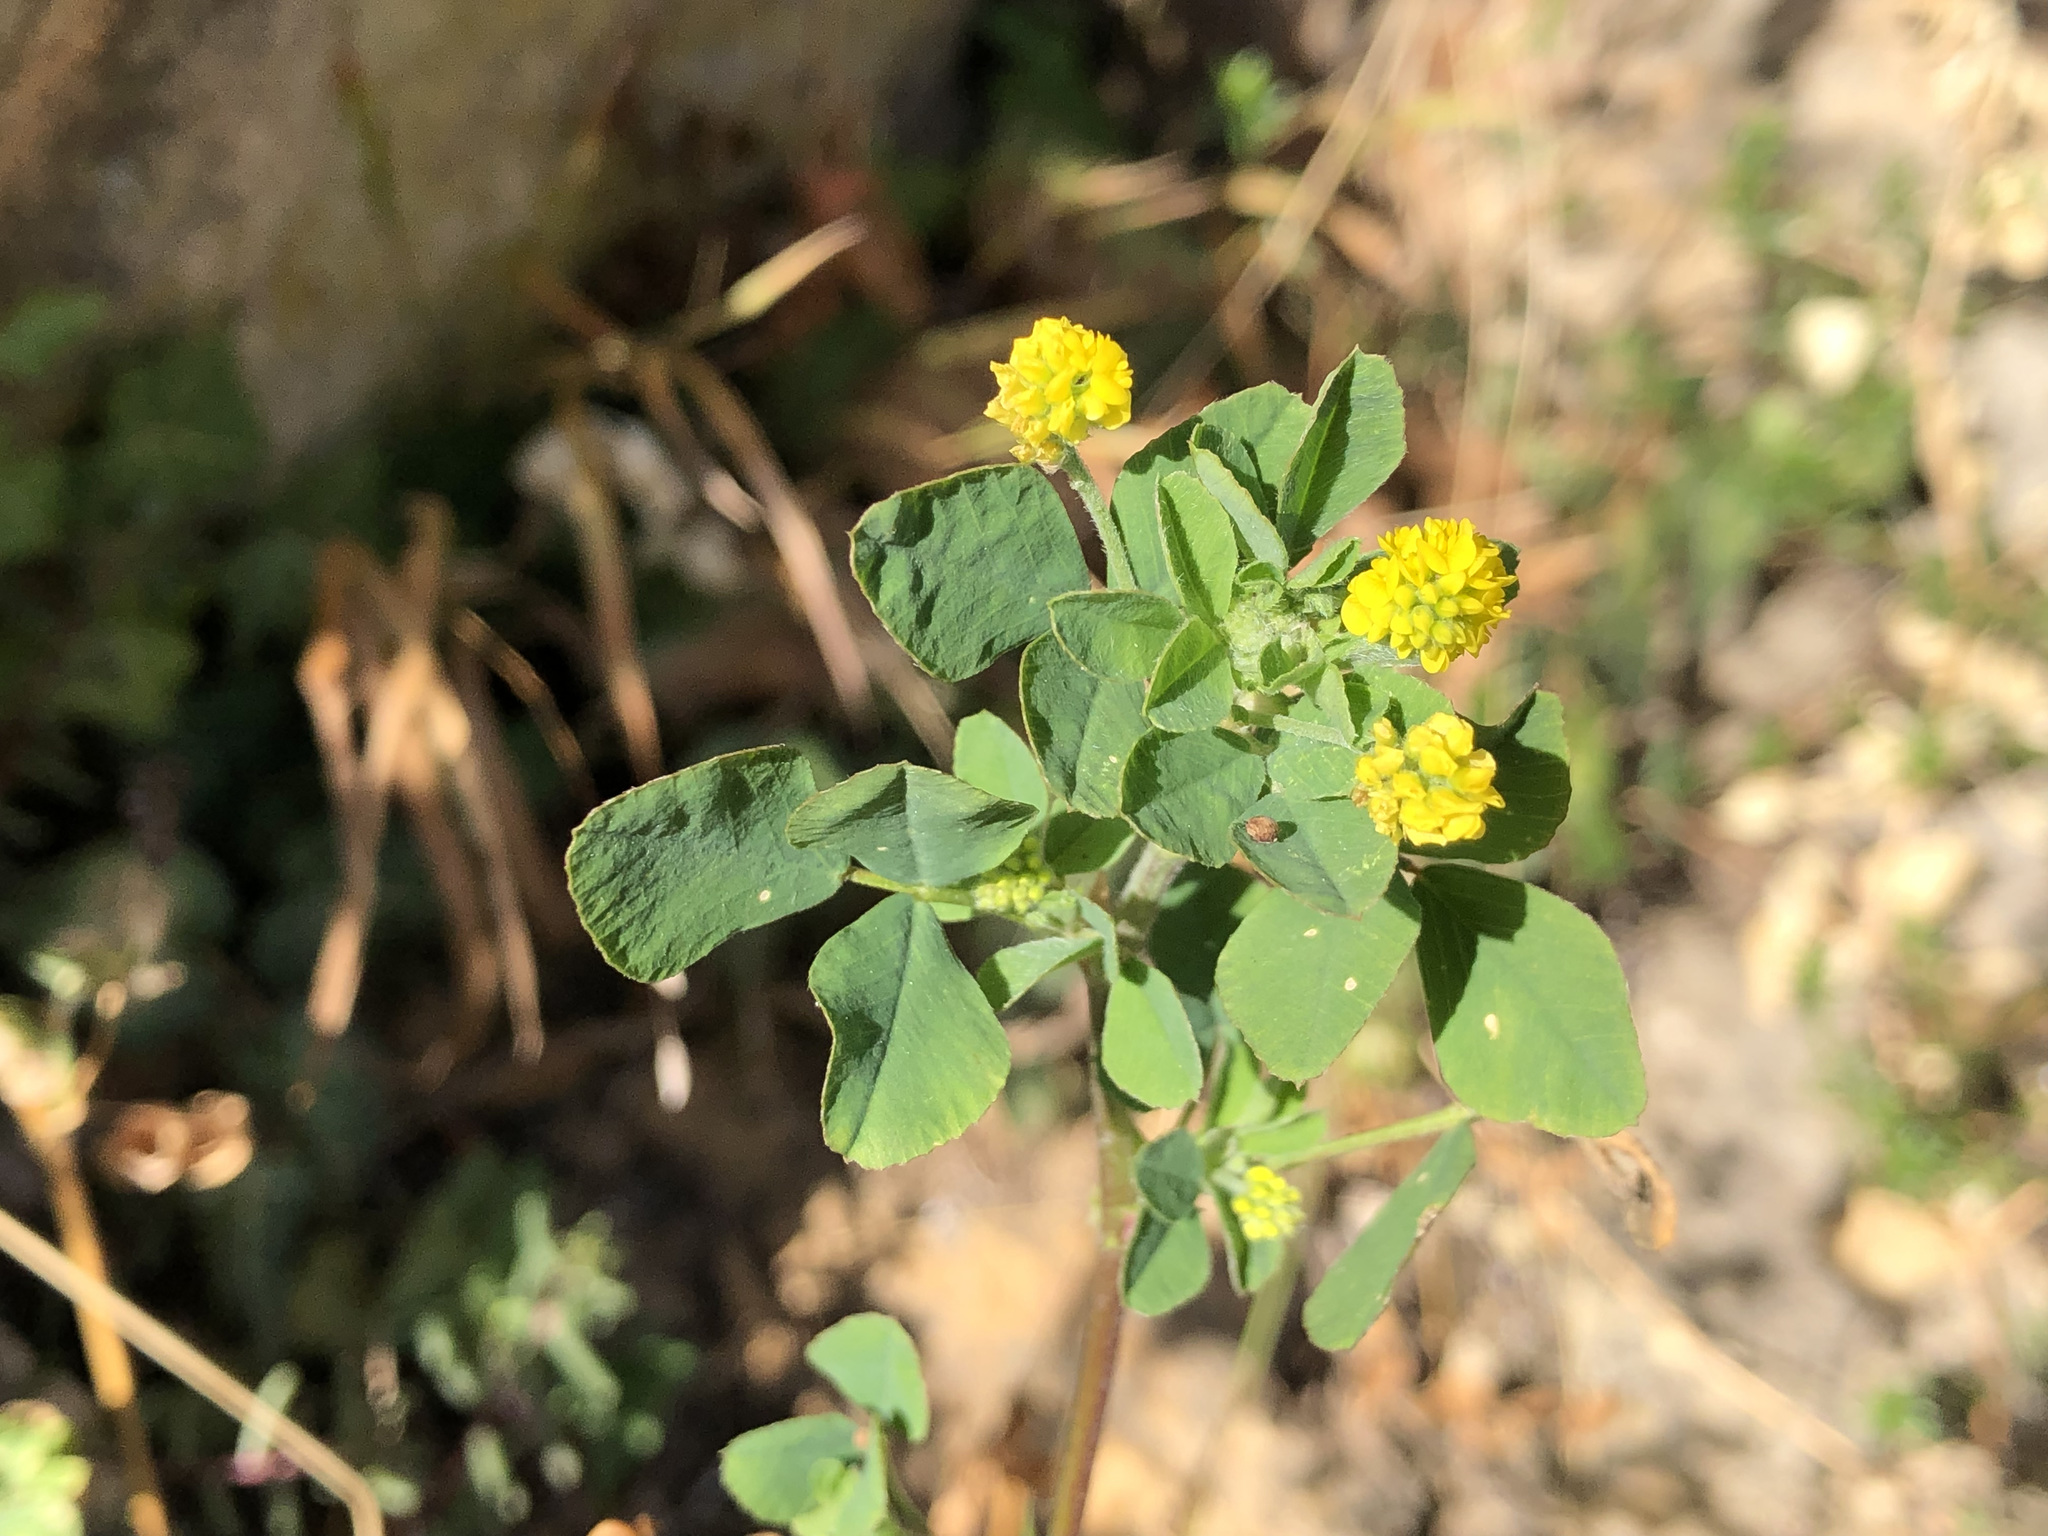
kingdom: Plantae
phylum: Tracheophyta
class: Magnoliopsida
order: Fabales
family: Fabaceae
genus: Medicago
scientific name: Medicago lupulina
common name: Black medick
